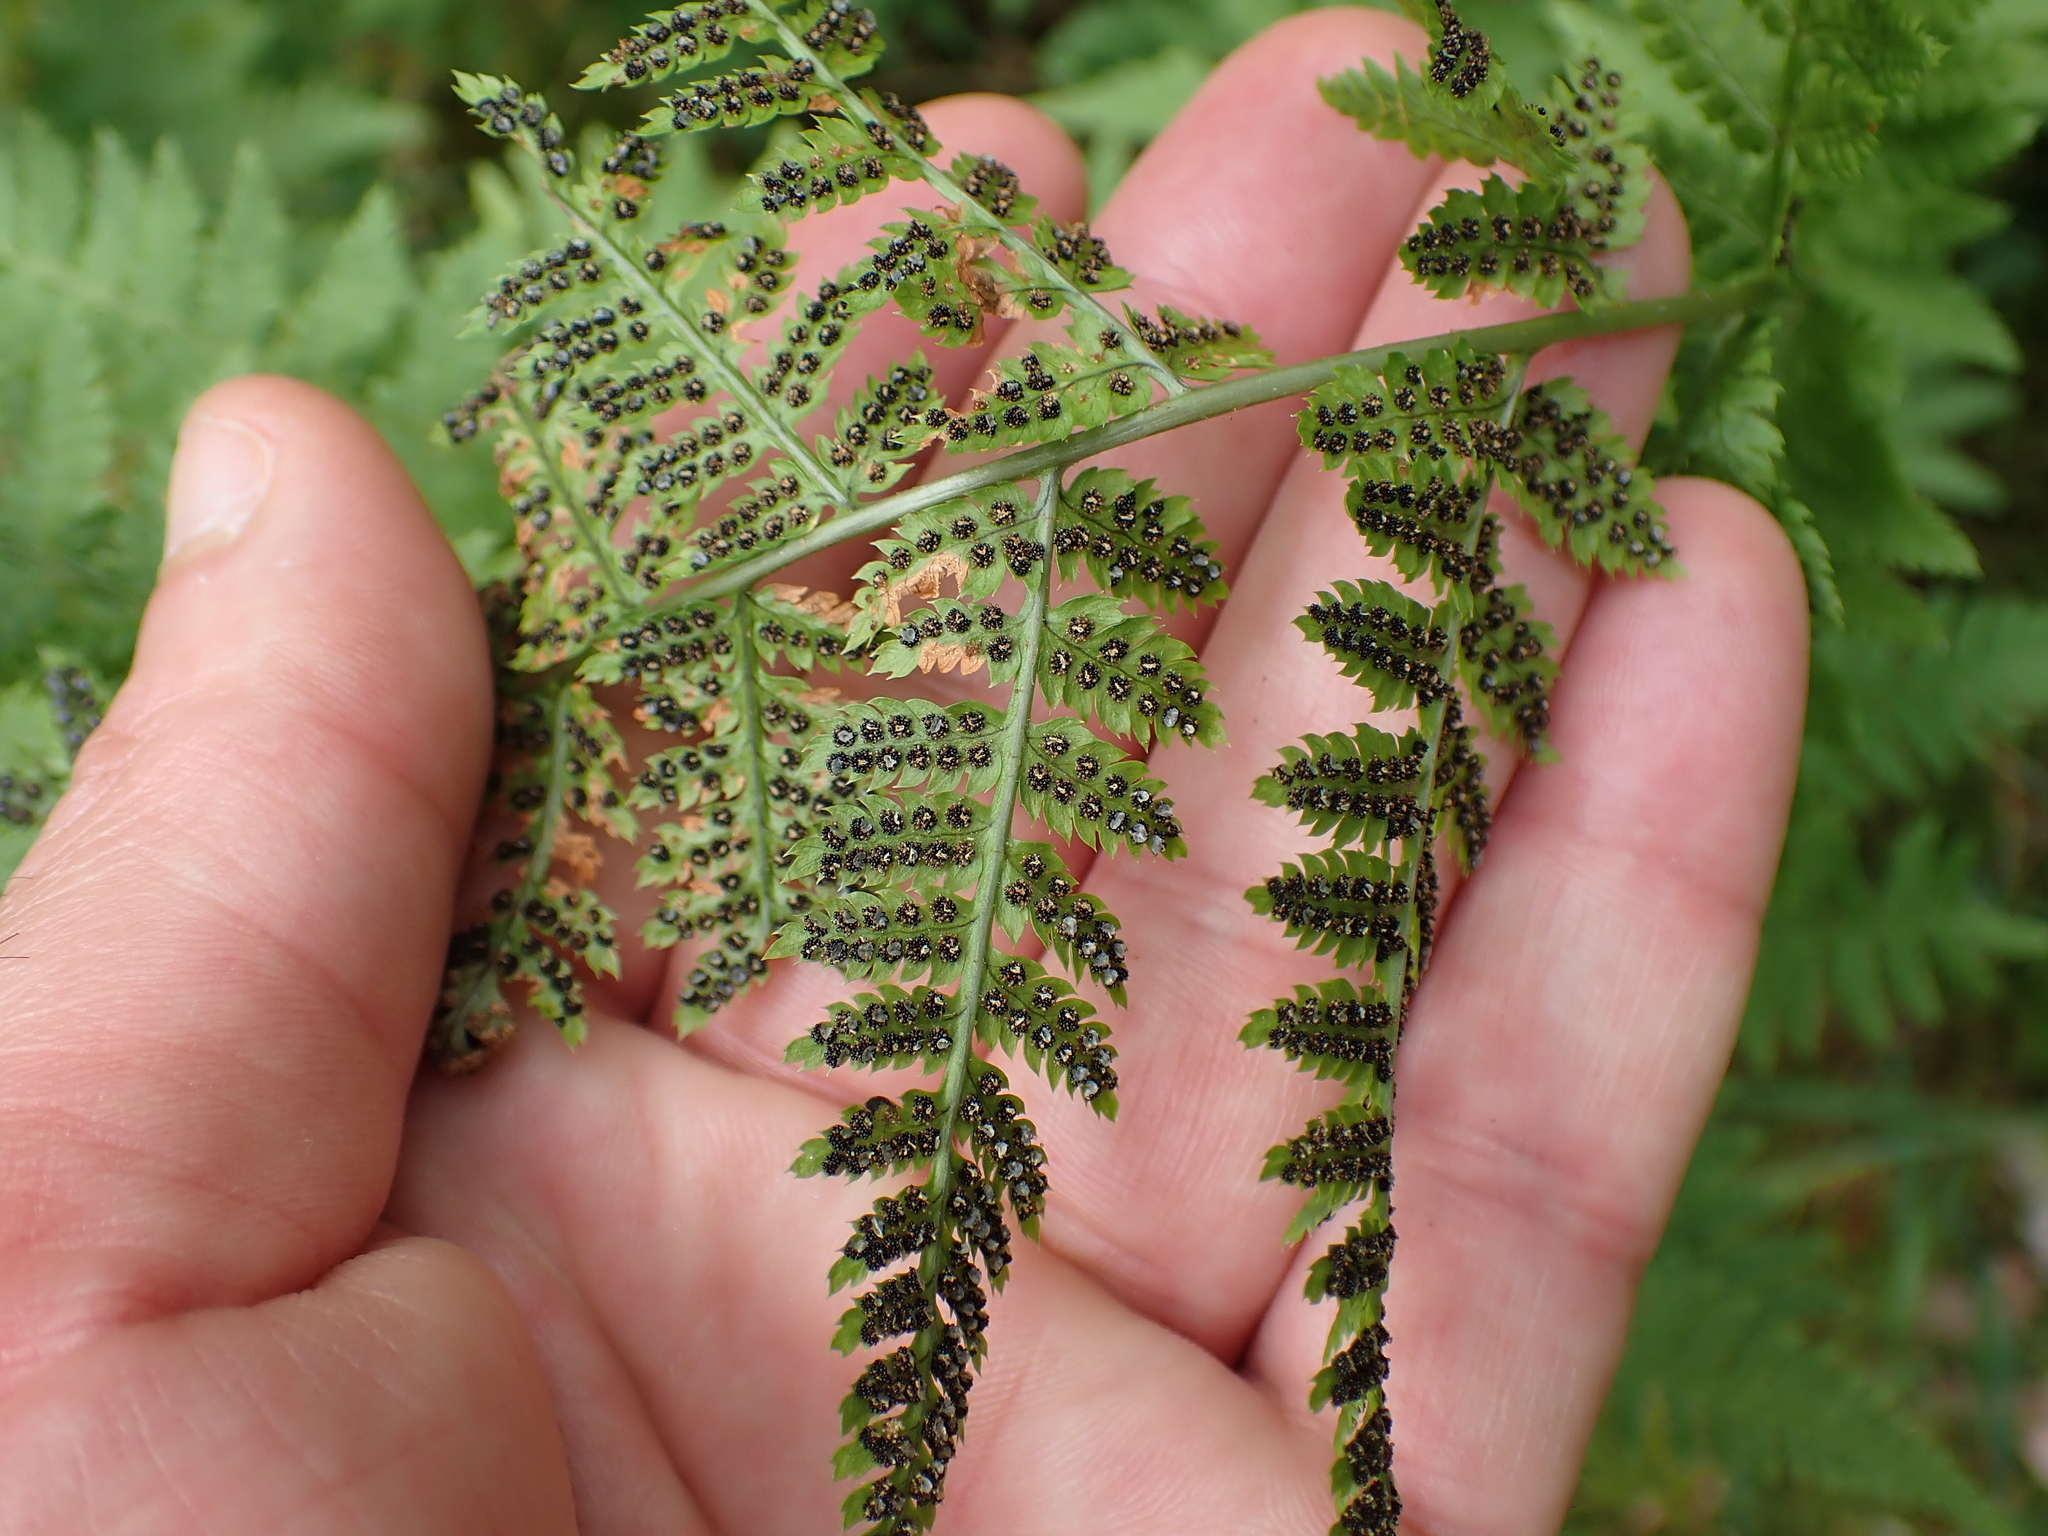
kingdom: Plantae
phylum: Tracheophyta
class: Polypodiopsida
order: Polypodiales
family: Dryopteridaceae
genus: Dryopteris
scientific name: Dryopteris carthusiana
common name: Narrow buckler-fern
